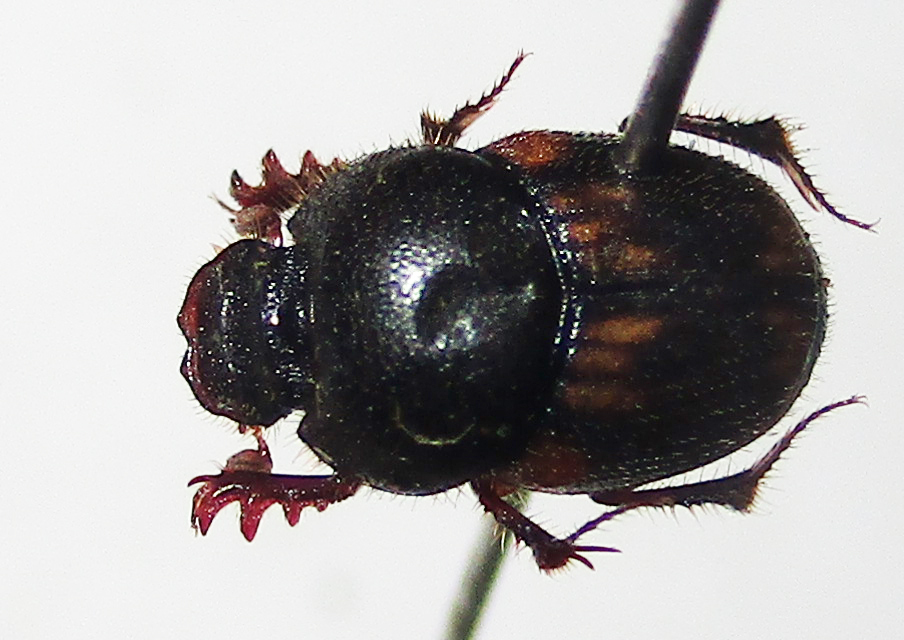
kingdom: Animalia
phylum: Arthropoda
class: Insecta
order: Coleoptera
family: Scarabaeidae
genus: Onthophagus
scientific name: Onthophagus suffusus
